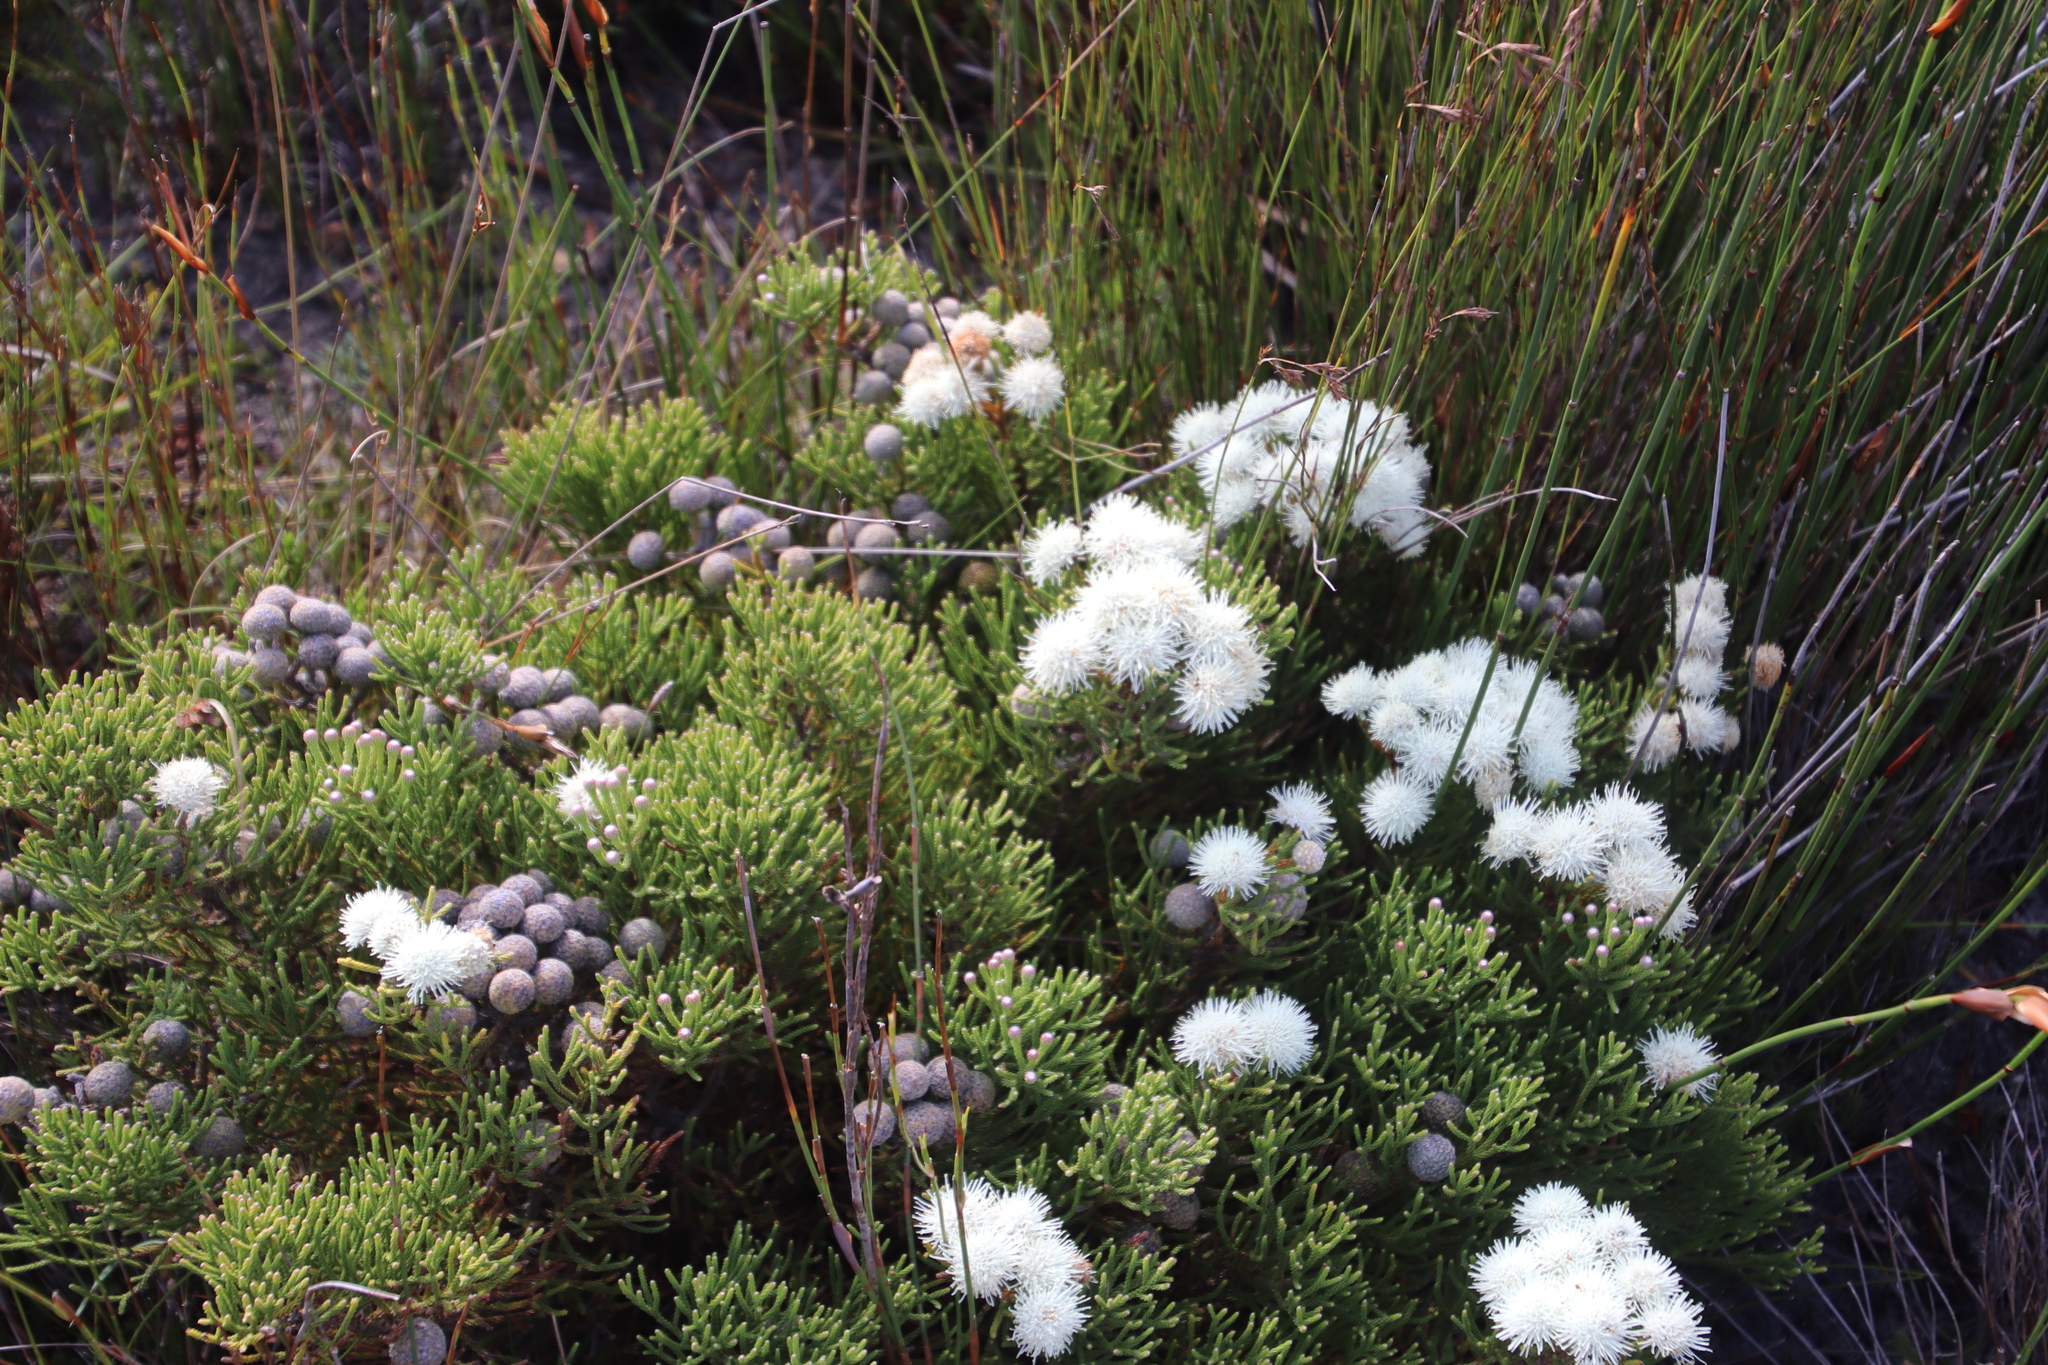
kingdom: Plantae
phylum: Tracheophyta
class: Magnoliopsida
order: Bruniales
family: Bruniaceae
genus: Brunia
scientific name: Brunia noduliflora
